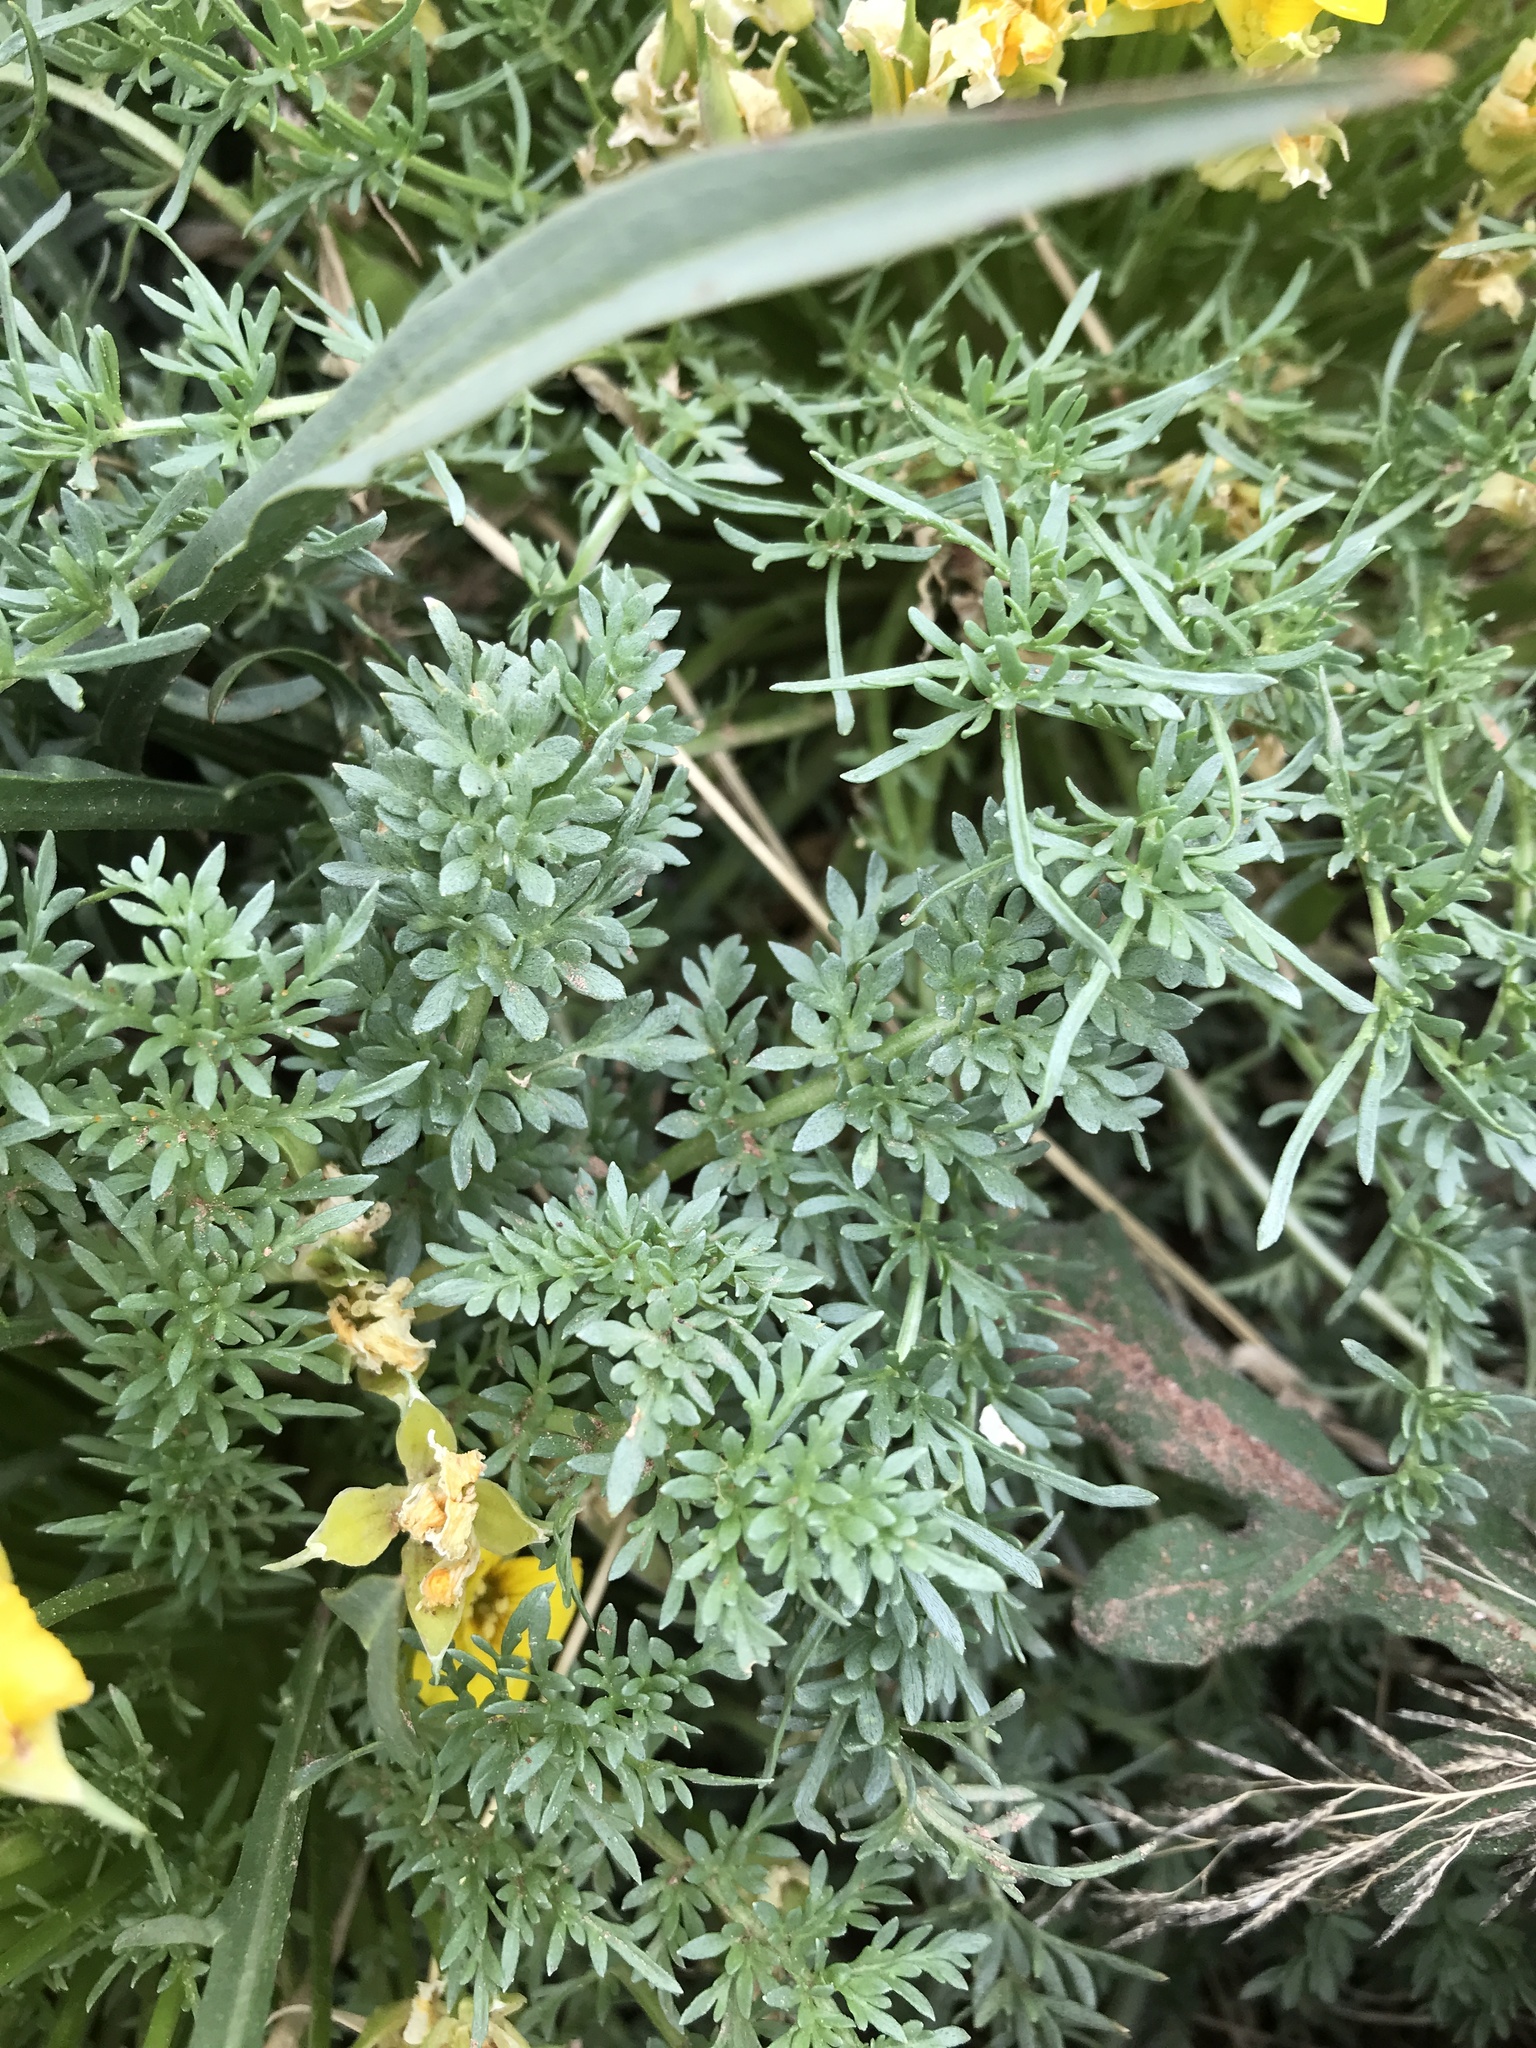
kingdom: Plantae
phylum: Tracheophyta
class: Magnoliopsida
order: Brassicales
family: Brassicaceae
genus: Selenia
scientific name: Selenia dissecta
